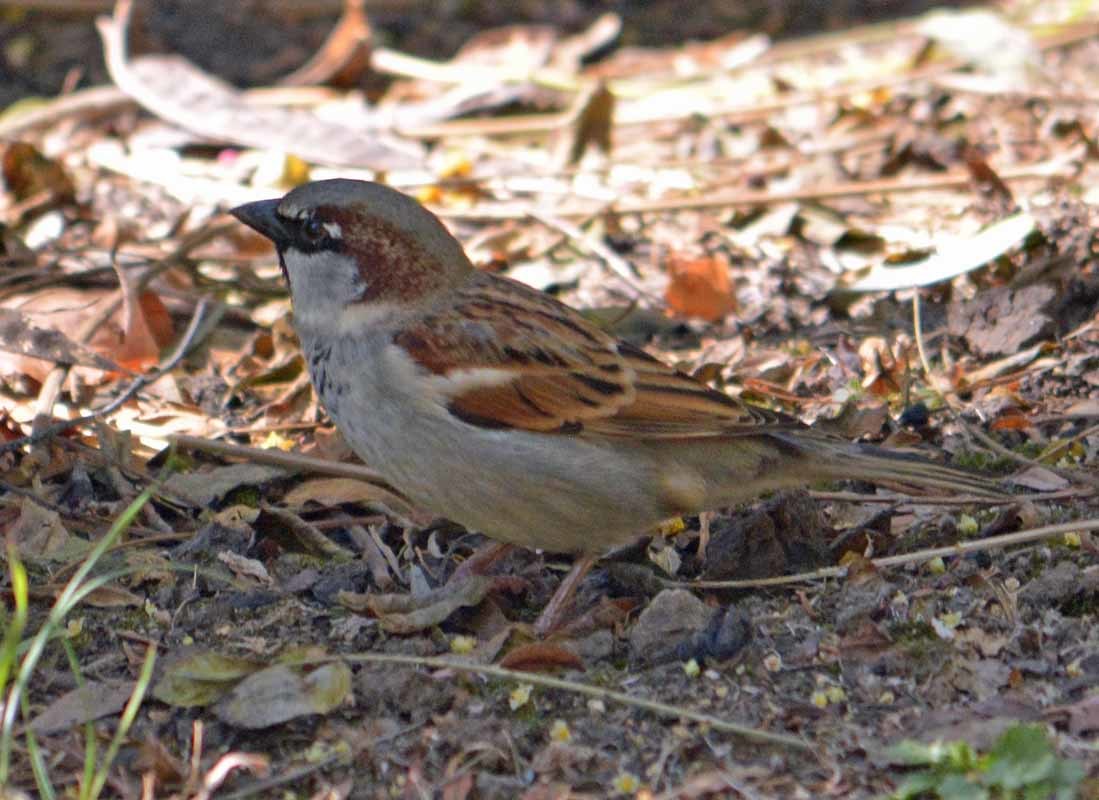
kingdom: Animalia
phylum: Chordata
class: Aves
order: Passeriformes
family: Passeridae
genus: Passer
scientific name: Passer domesticus
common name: House sparrow
